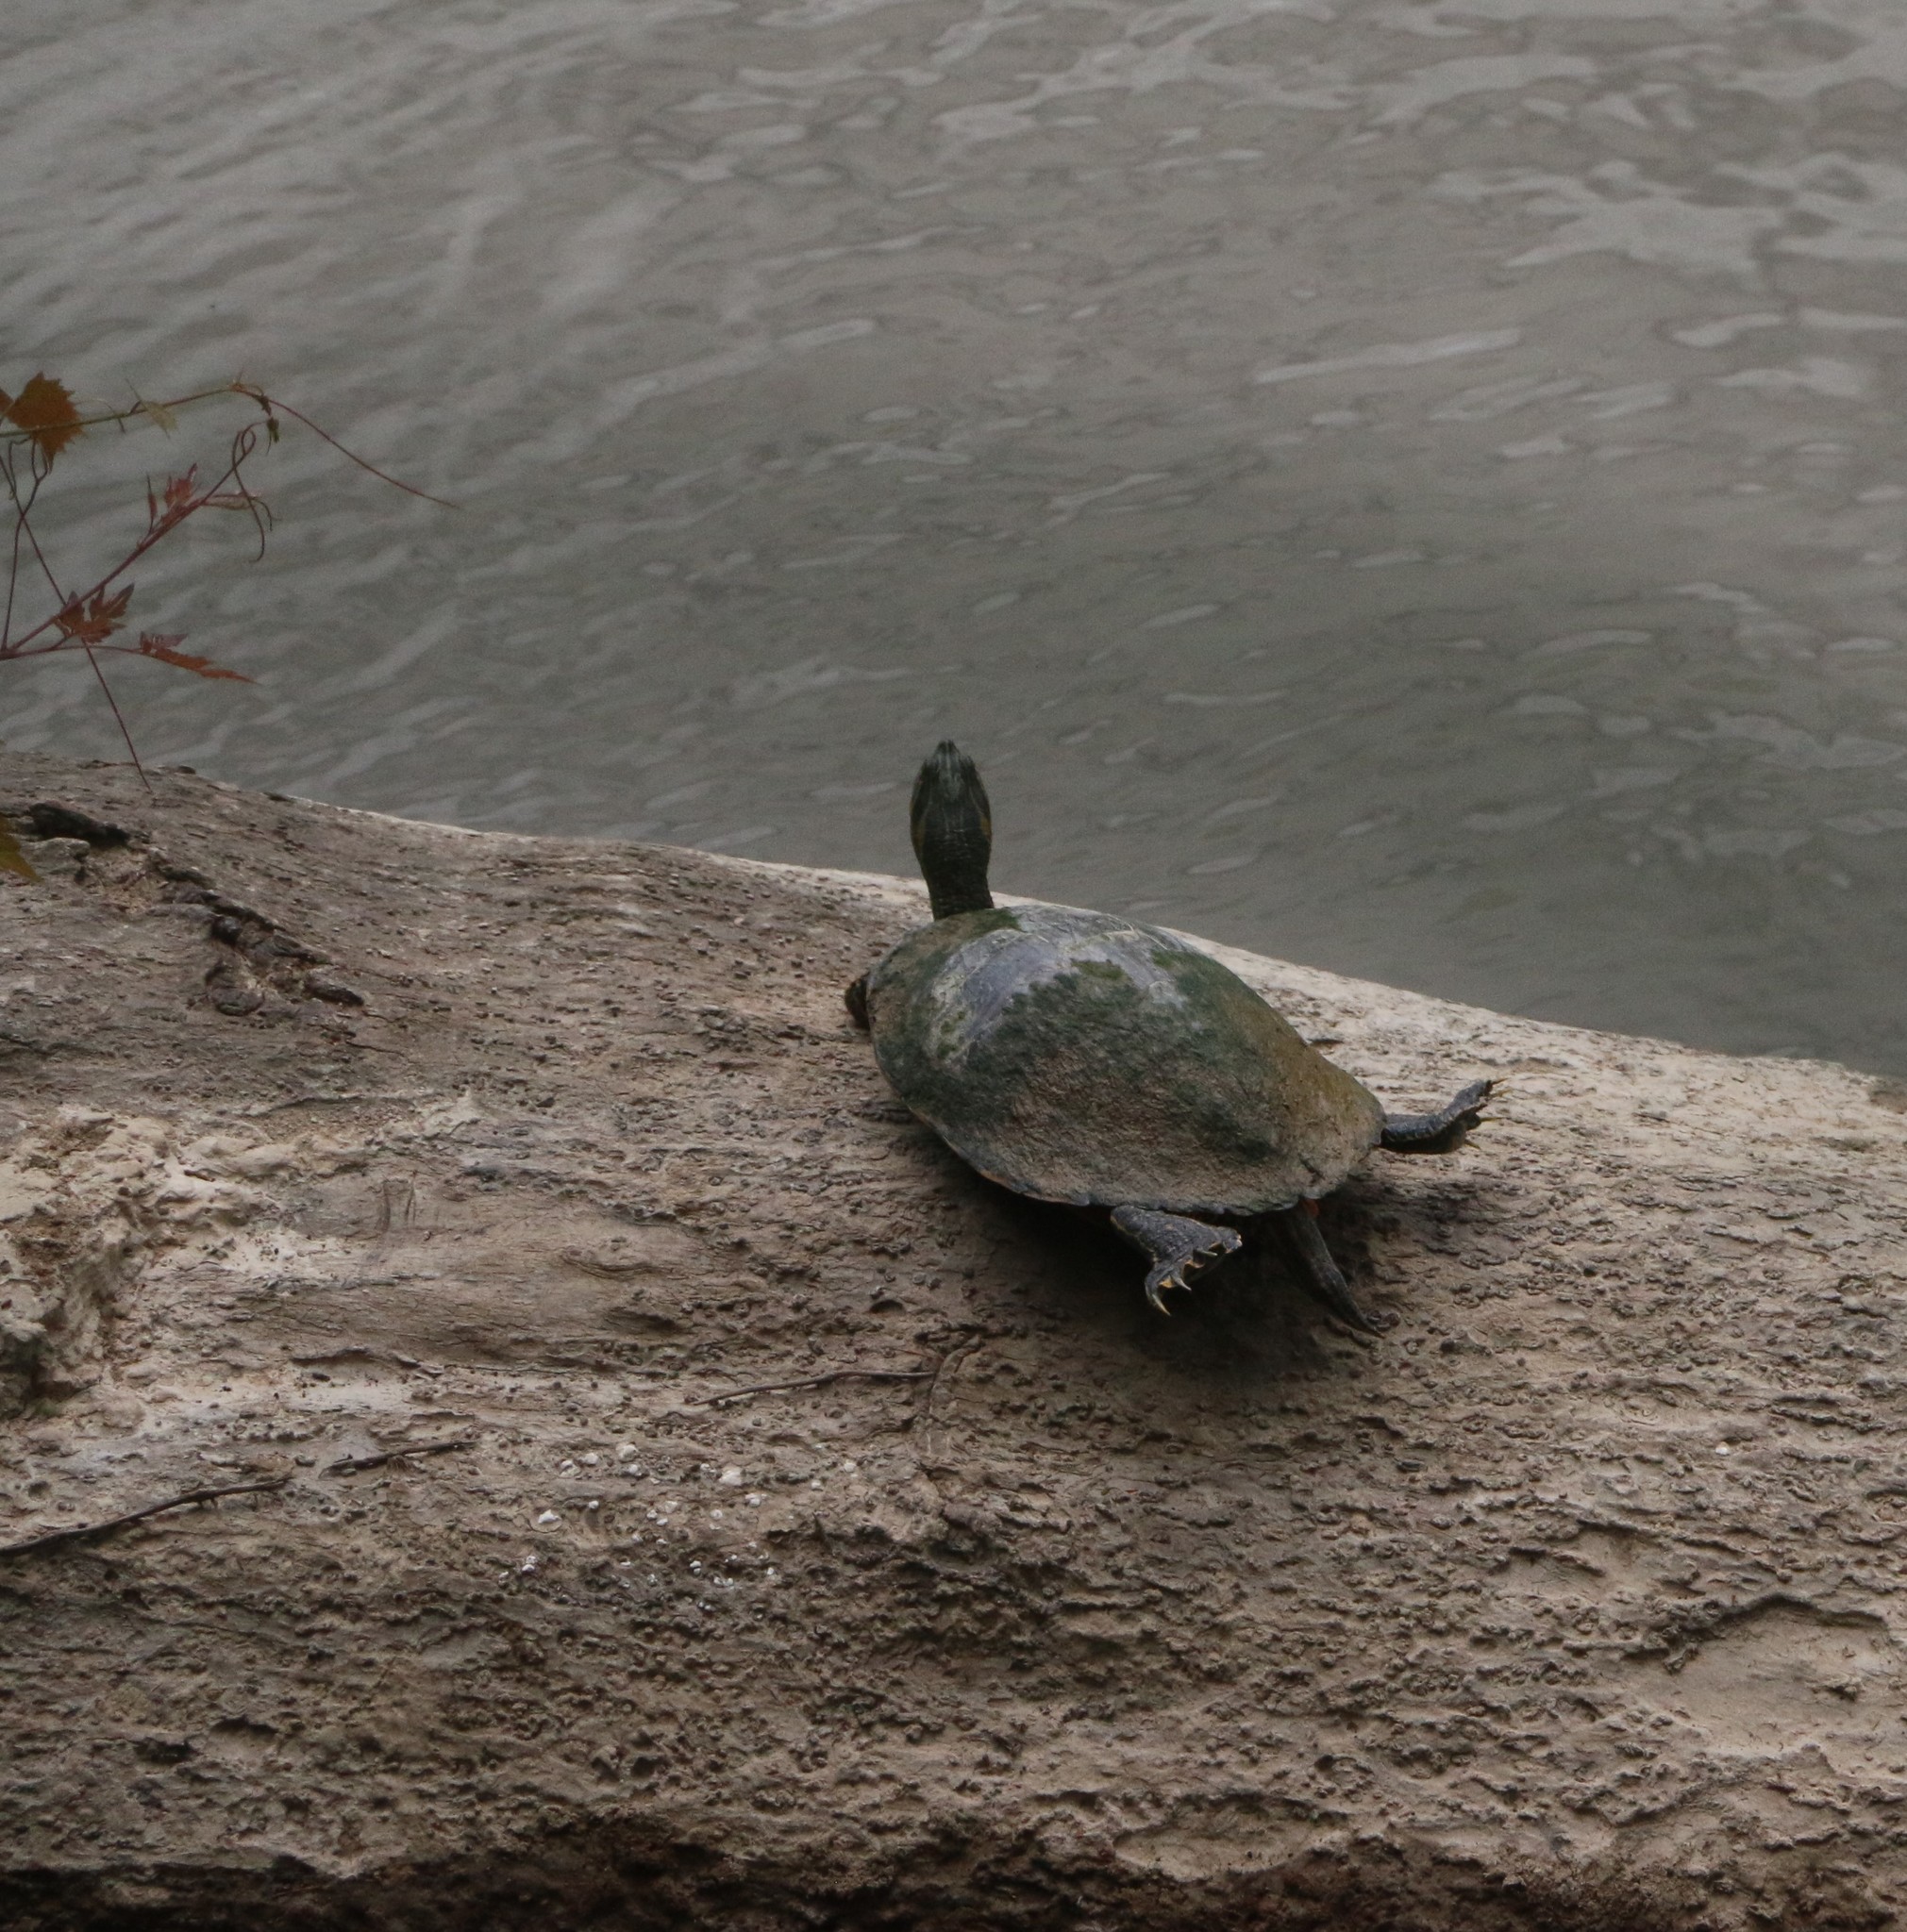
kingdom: Animalia
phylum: Chordata
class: Testudines
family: Emydidae
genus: Pseudemys
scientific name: Pseudemys concinna
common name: Eastern river cooter
